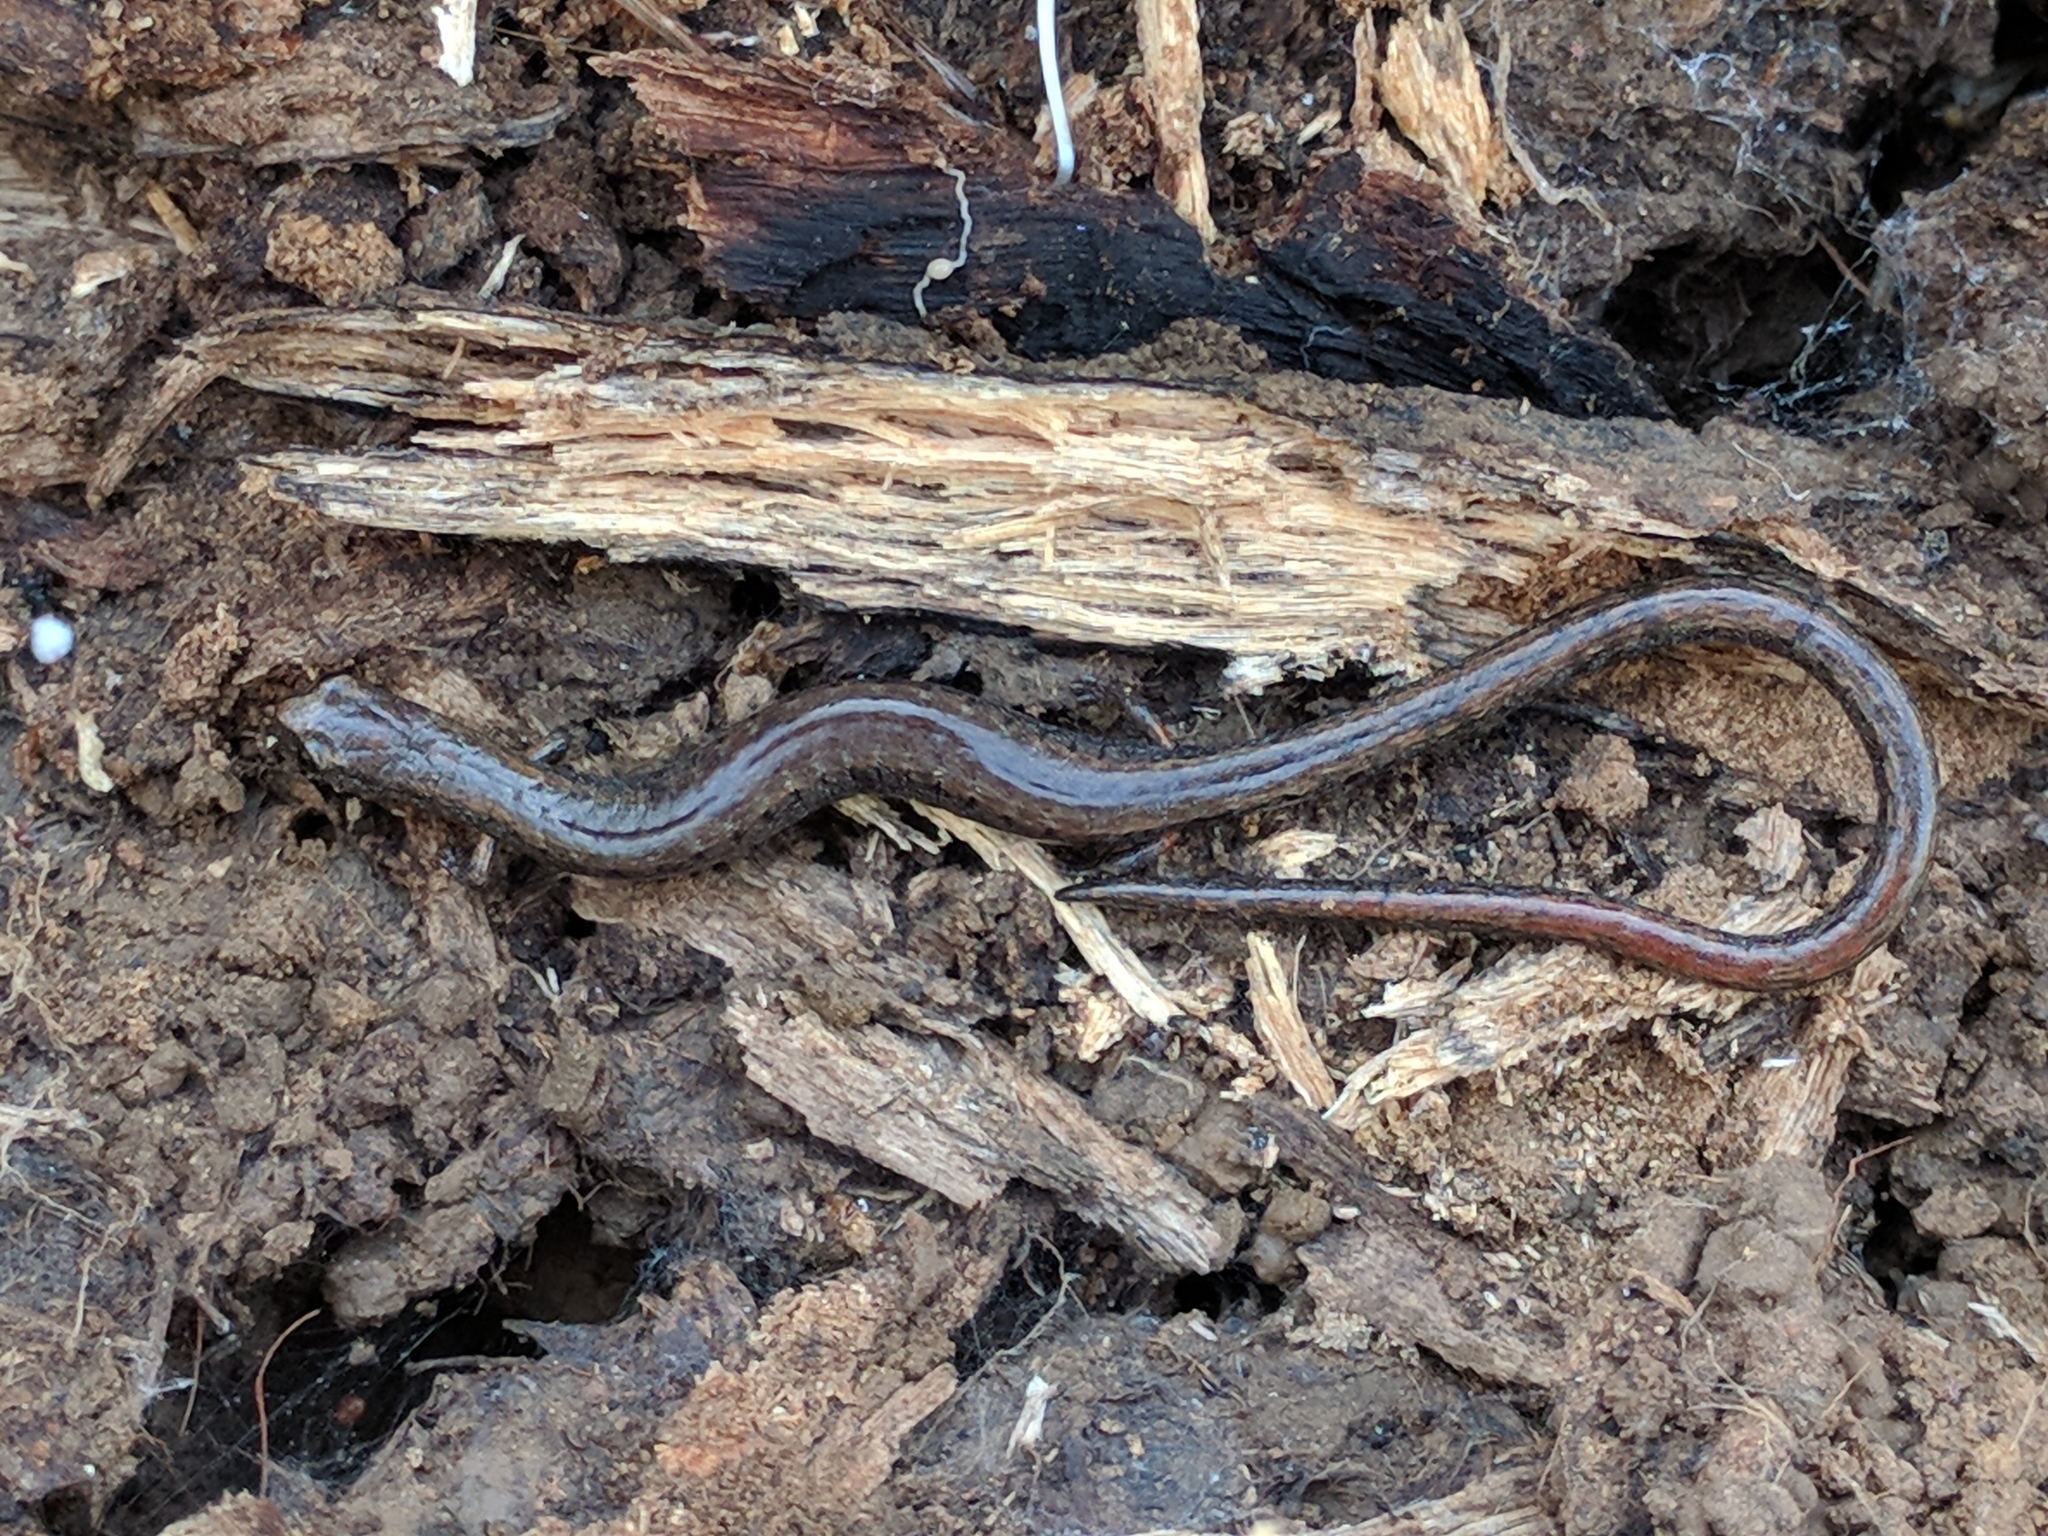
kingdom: Animalia
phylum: Chordata
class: Amphibia
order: Caudata
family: Plethodontidae
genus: Batrachoseps
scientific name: Batrachoseps attenuatus
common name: California slender salamander
